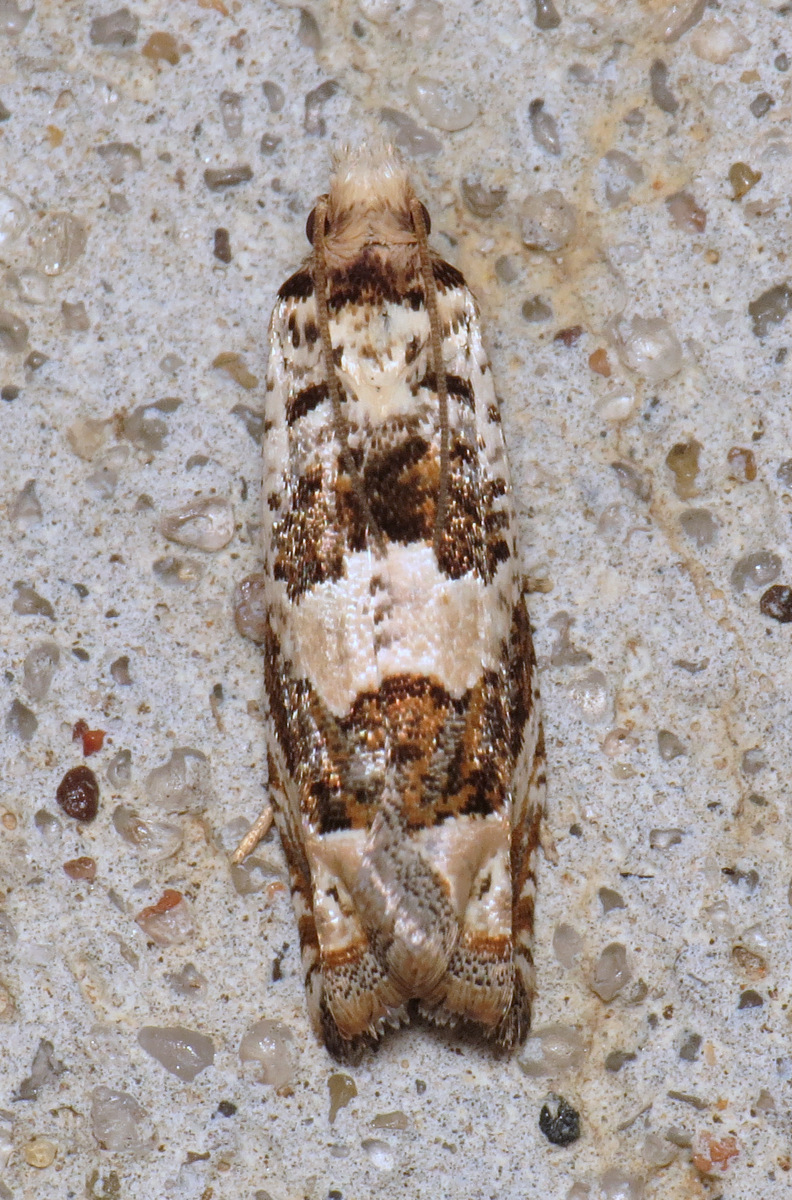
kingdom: Animalia
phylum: Arthropoda
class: Insecta
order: Lepidoptera
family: Tortricidae
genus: Pelochrista
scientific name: Pelochrista matutina
